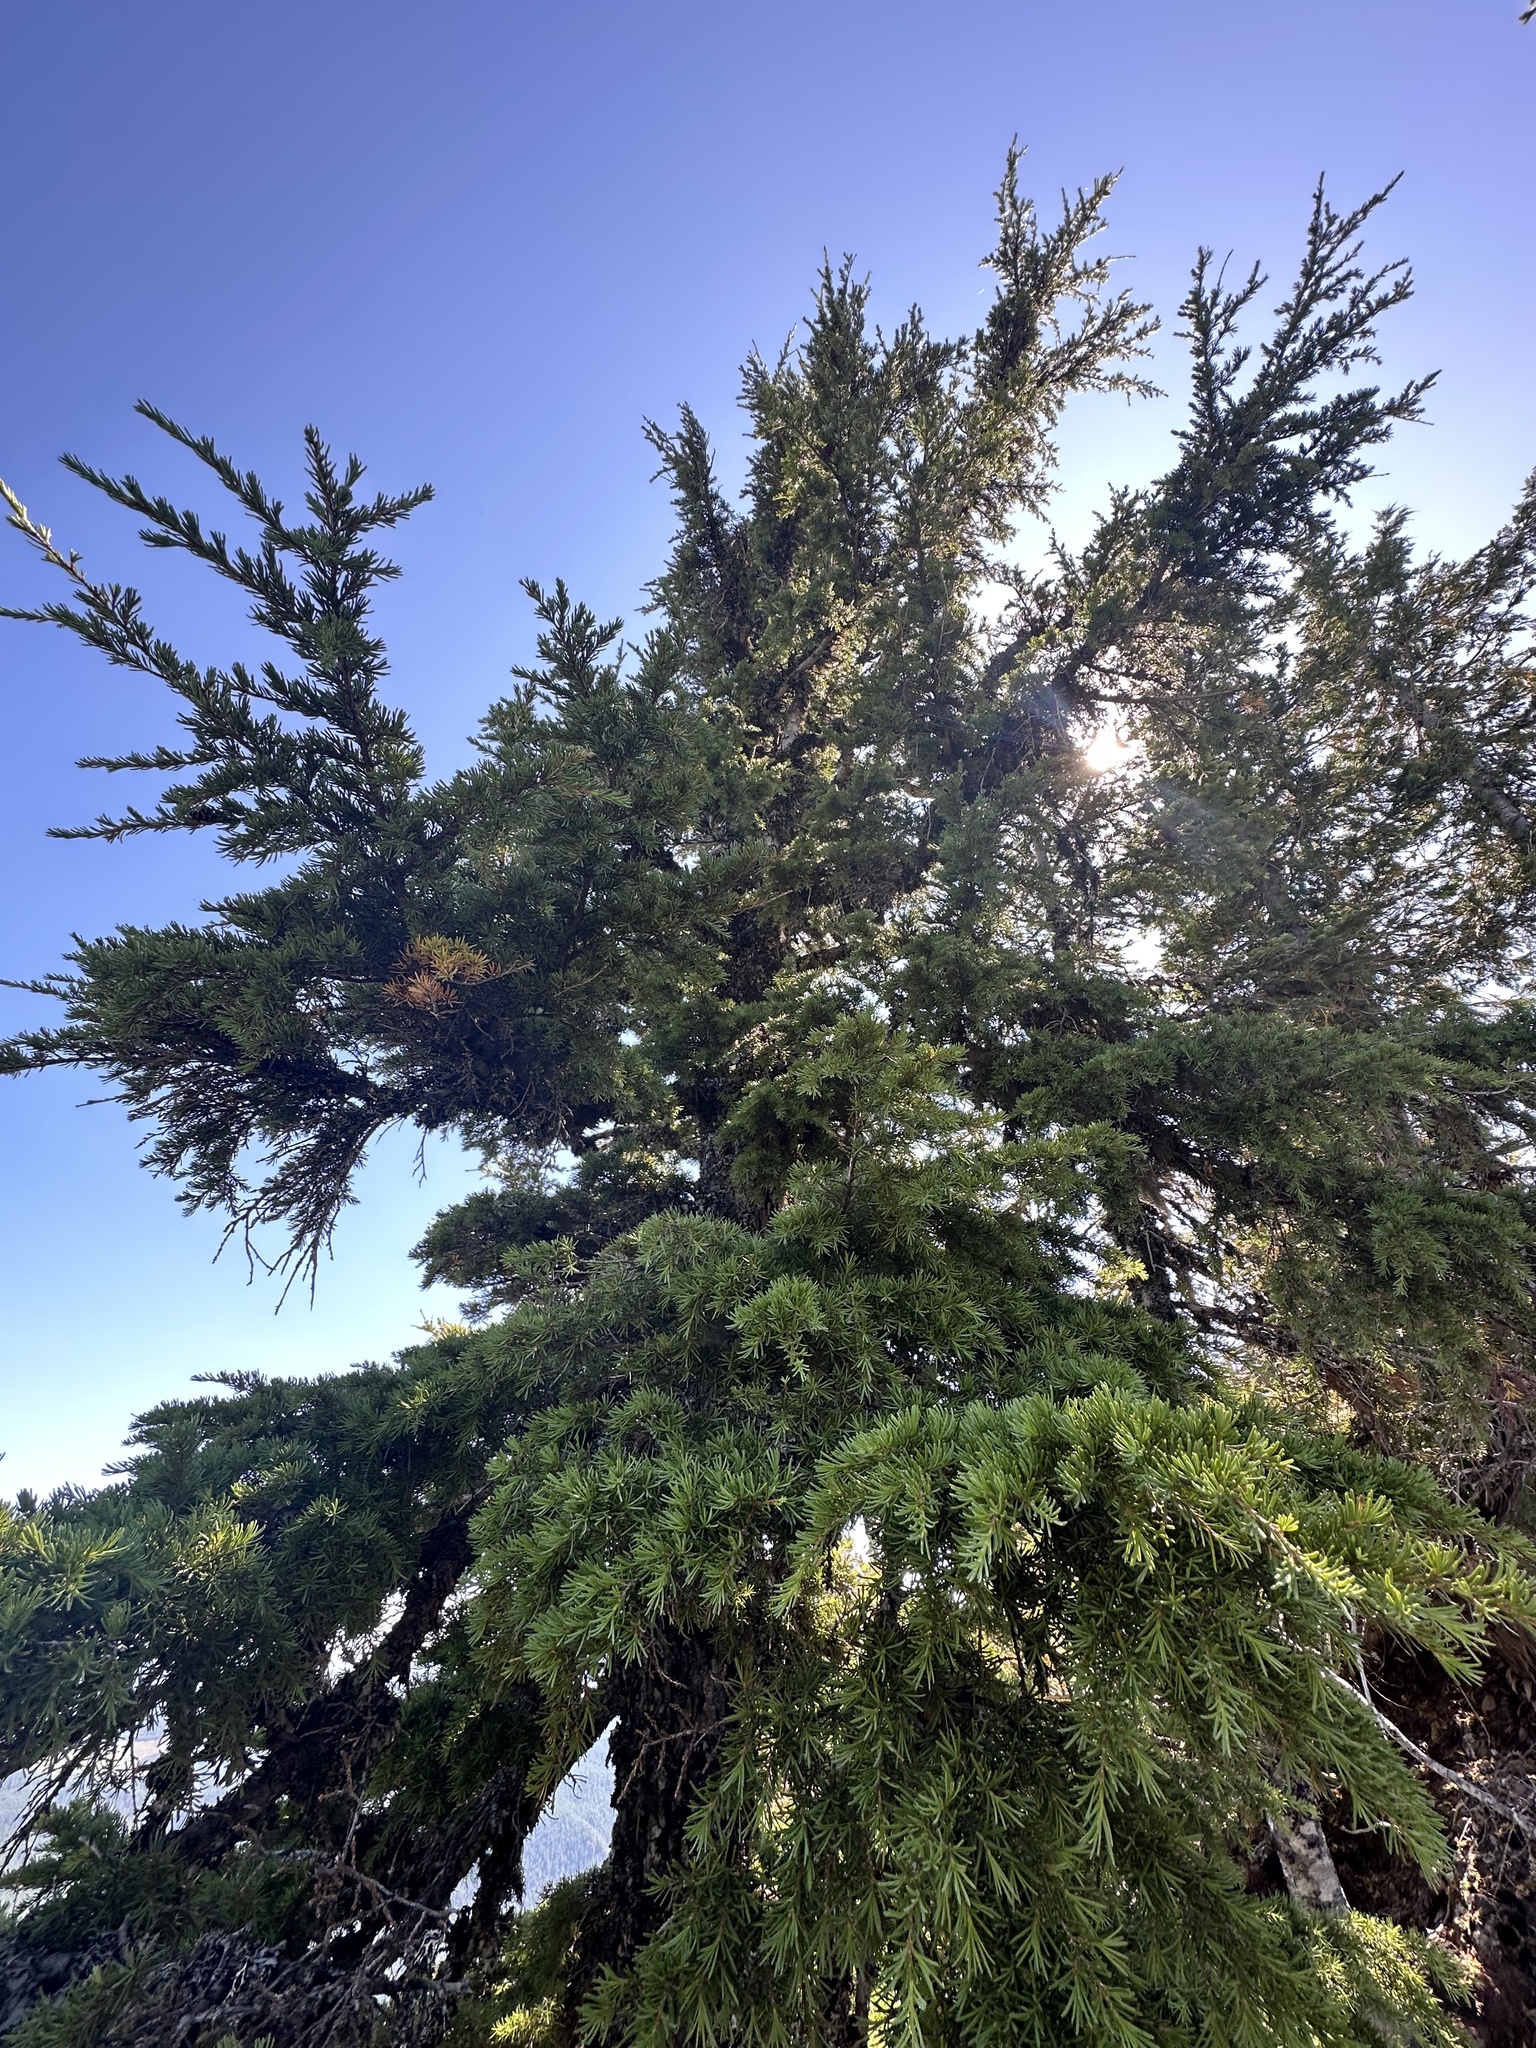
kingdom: Plantae
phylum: Tracheophyta
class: Pinopsida
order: Pinales
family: Pinaceae
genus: Tsuga
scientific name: Tsuga mertensiana
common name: Mountain hemlock
